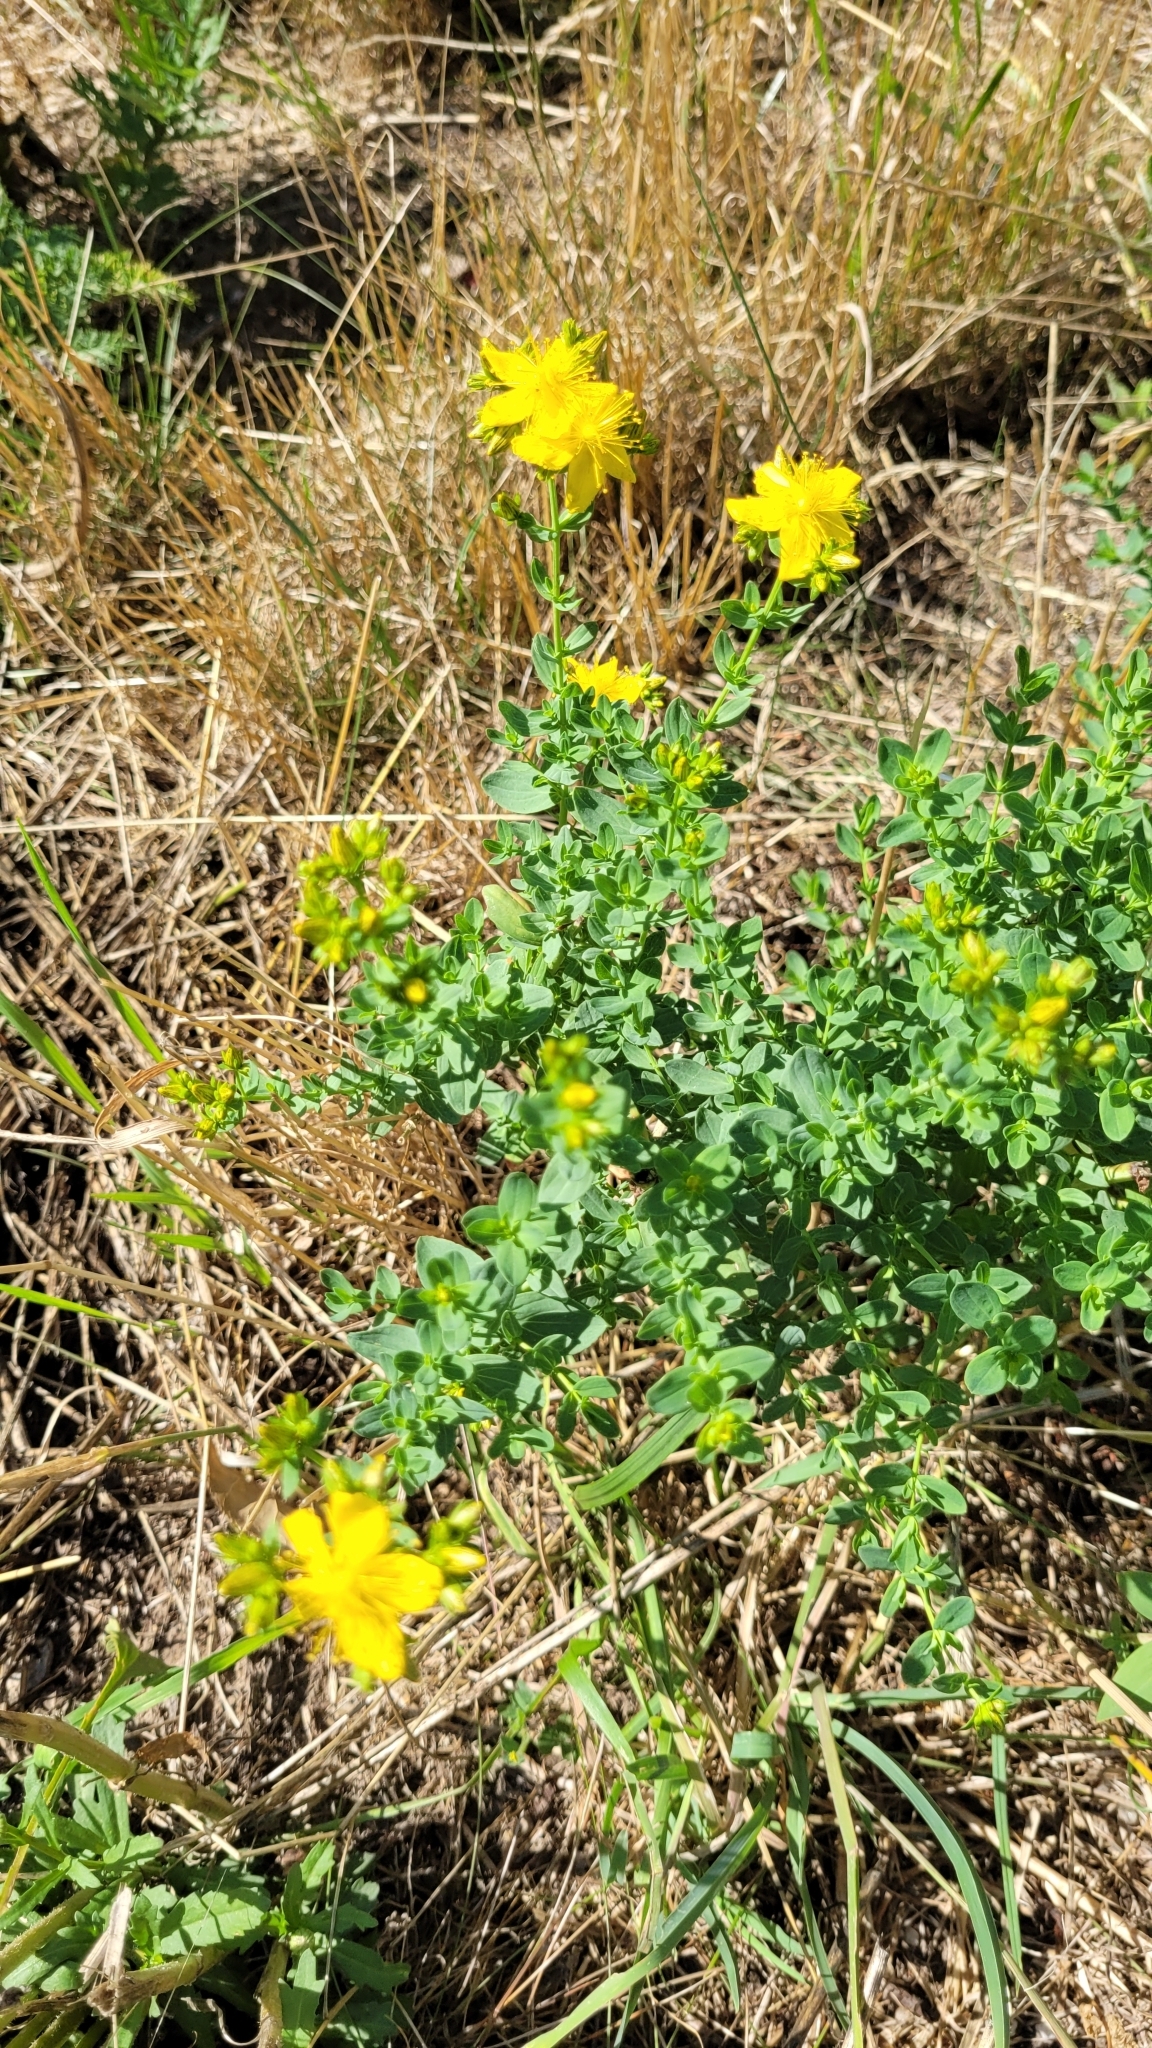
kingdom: Plantae
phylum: Tracheophyta
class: Magnoliopsida
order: Malpighiales
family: Hypericaceae
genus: Hypericum
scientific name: Hypericum perforatum
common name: Common st. johnswort
